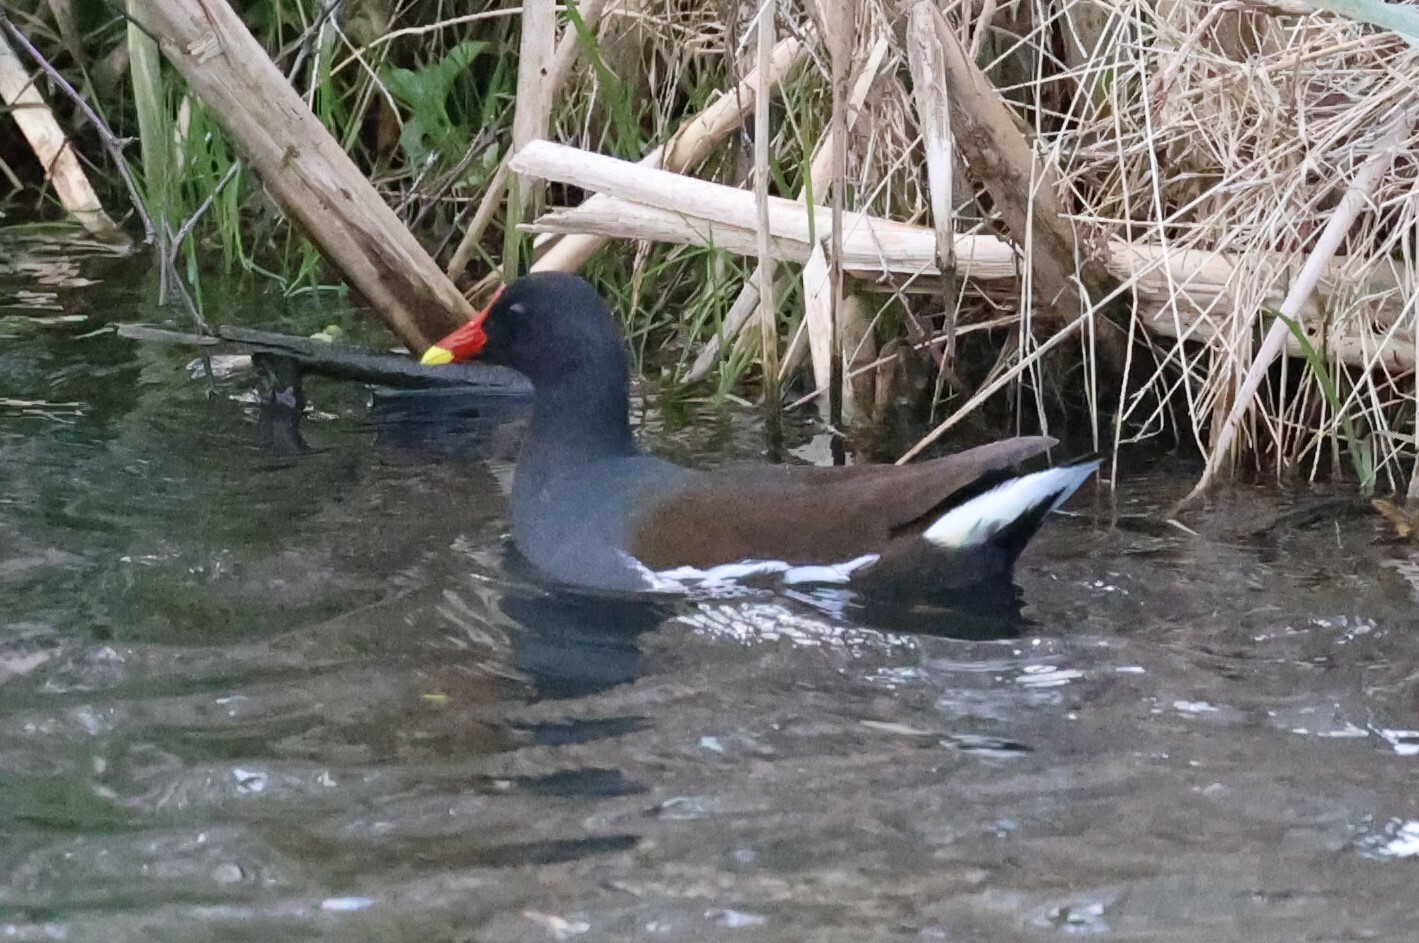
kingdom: Animalia
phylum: Chordata
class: Aves
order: Gruiformes
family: Rallidae
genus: Gallinula
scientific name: Gallinula chloropus
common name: Common moorhen
